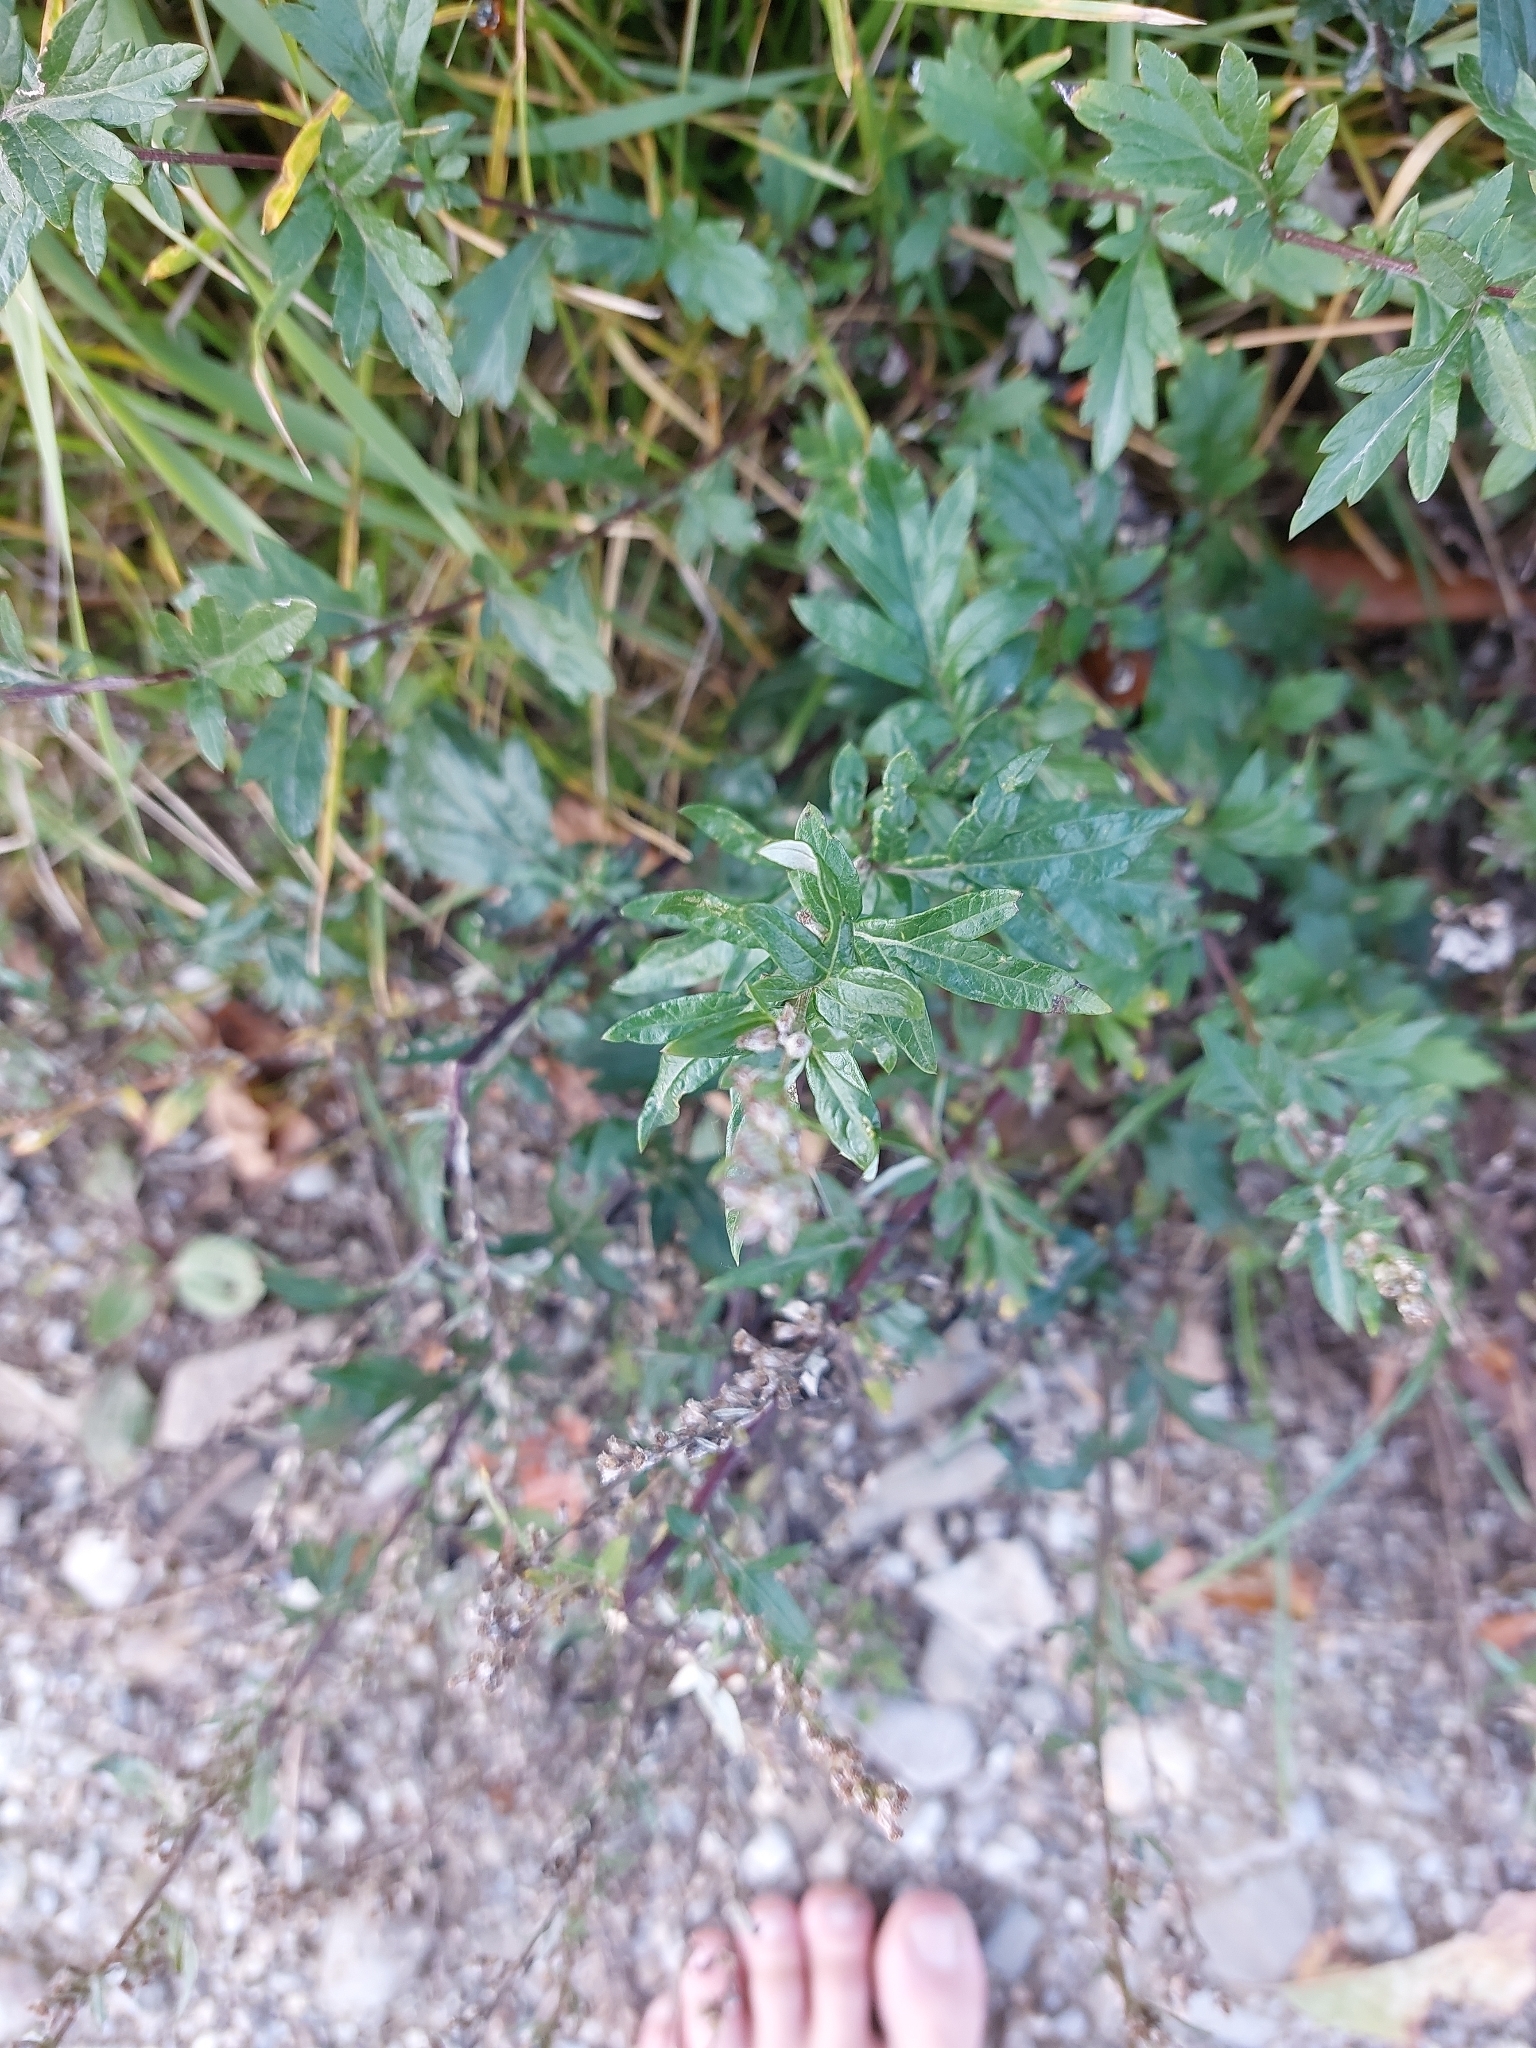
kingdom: Plantae
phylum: Tracheophyta
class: Magnoliopsida
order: Asterales
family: Asteraceae
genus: Artemisia
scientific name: Artemisia vulgaris
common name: Mugwort
